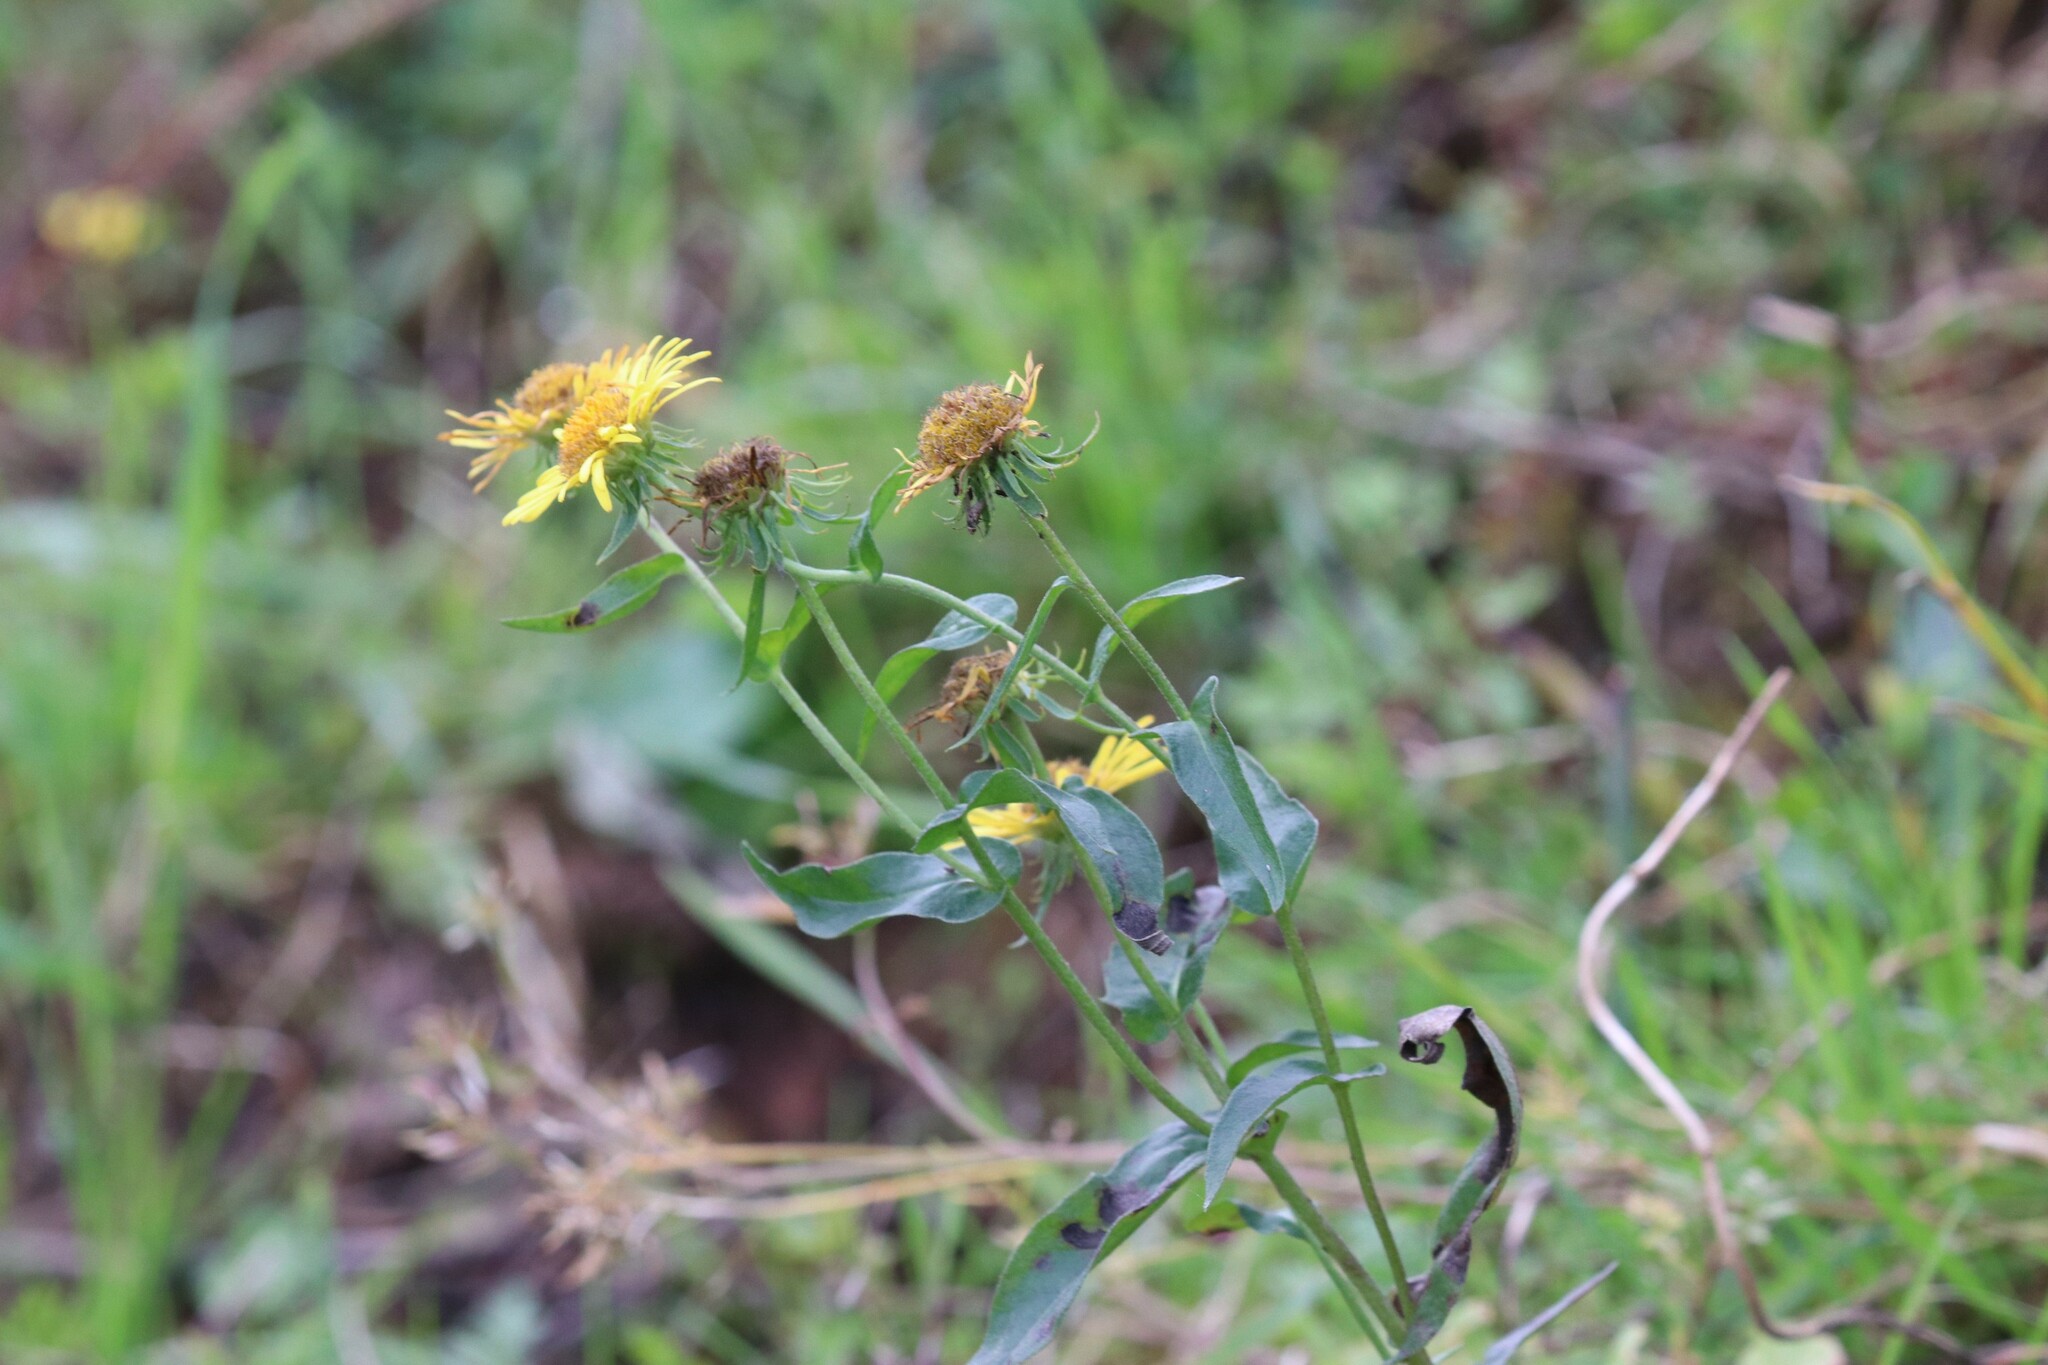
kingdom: Plantae
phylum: Tracheophyta
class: Magnoliopsida
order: Asterales
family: Asteraceae
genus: Pentanema
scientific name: Pentanema britannicum
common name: British elecampane
